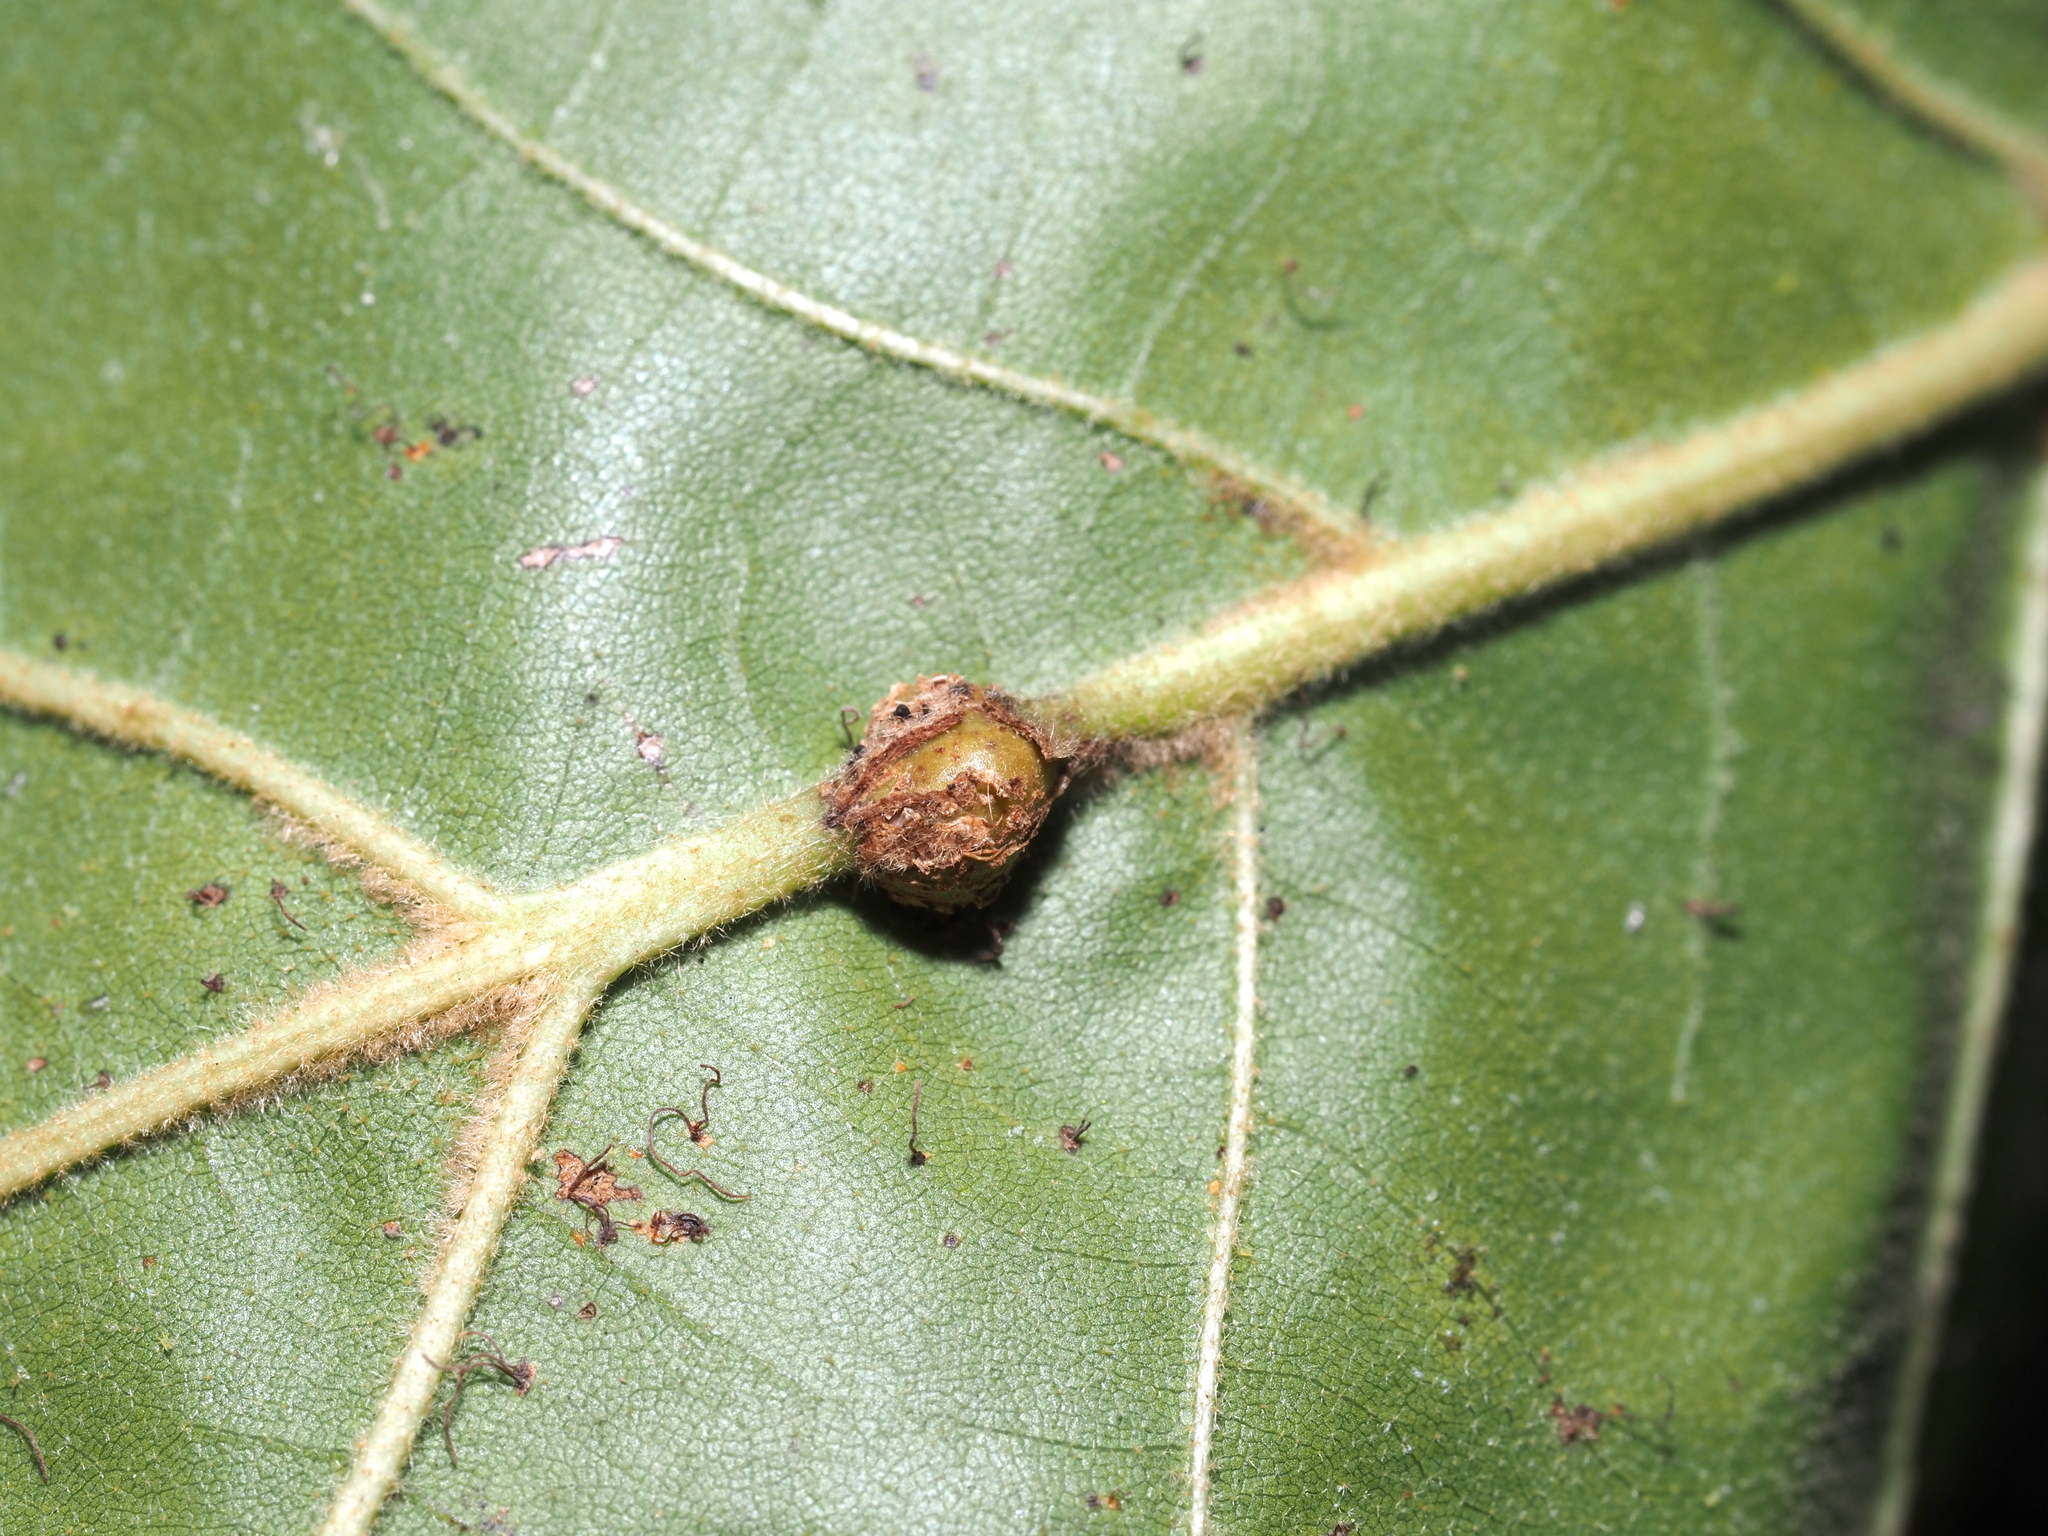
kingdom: Animalia
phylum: Arthropoda
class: Insecta
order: Hymenoptera
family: Cynipidae
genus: Kokkocynips
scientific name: Kokkocynips decidua
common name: Oak wheat gall
